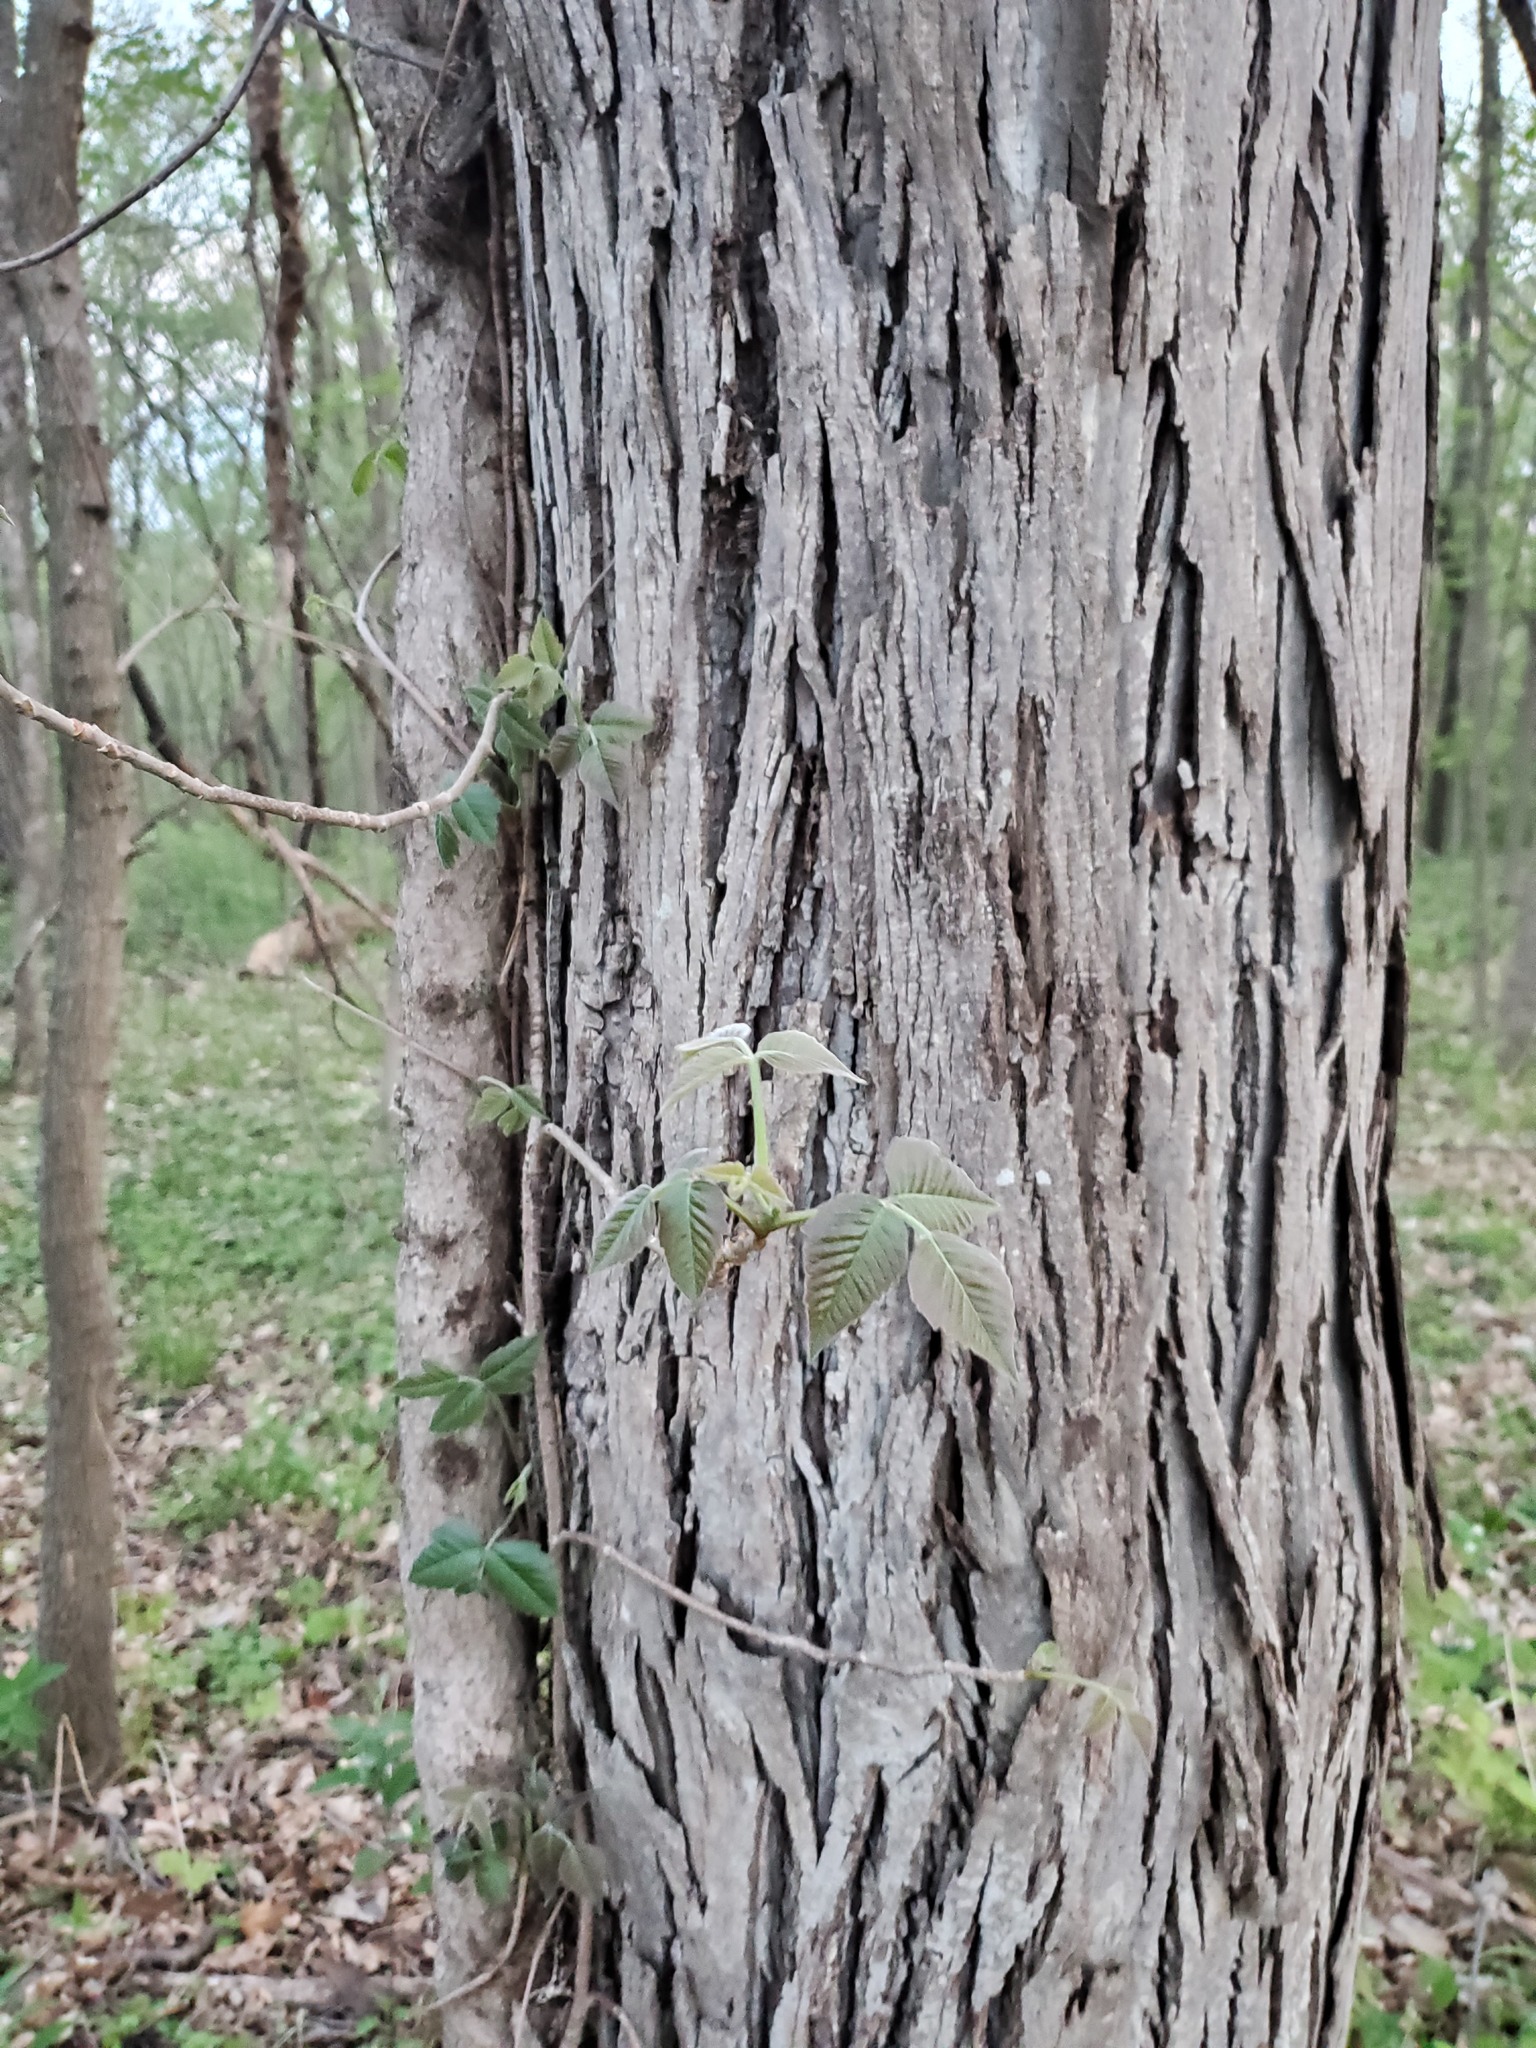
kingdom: Plantae
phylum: Tracheophyta
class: Magnoliopsida
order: Sapindales
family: Anacardiaceae
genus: Toxicodendron
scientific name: Toxicodendron radicans
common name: Poison ivy
